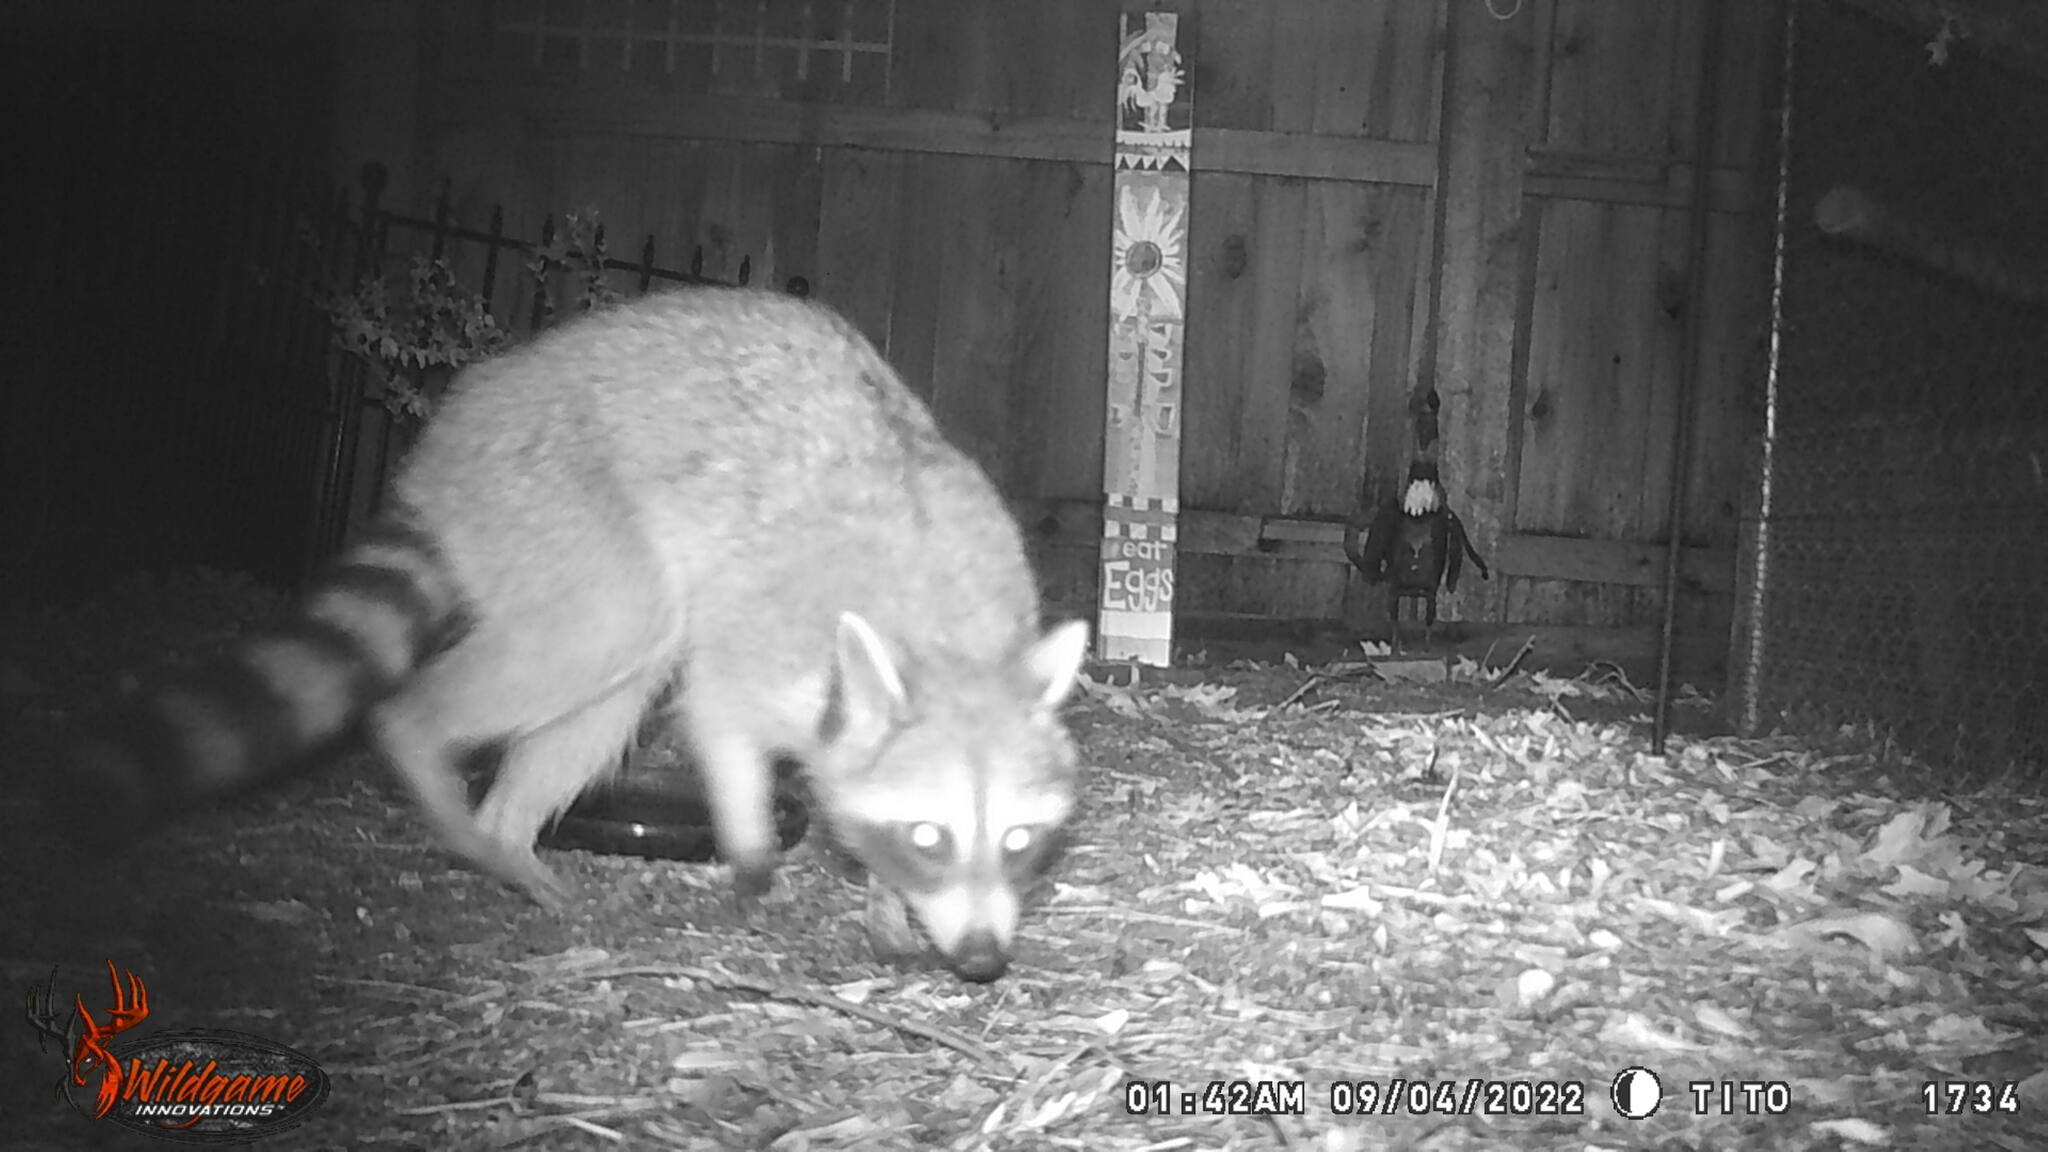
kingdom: Animalia
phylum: Chordata
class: Mammalia
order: Carnivora
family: Procyonidae
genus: Procyon
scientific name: Procyon lotor
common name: Raccoon
